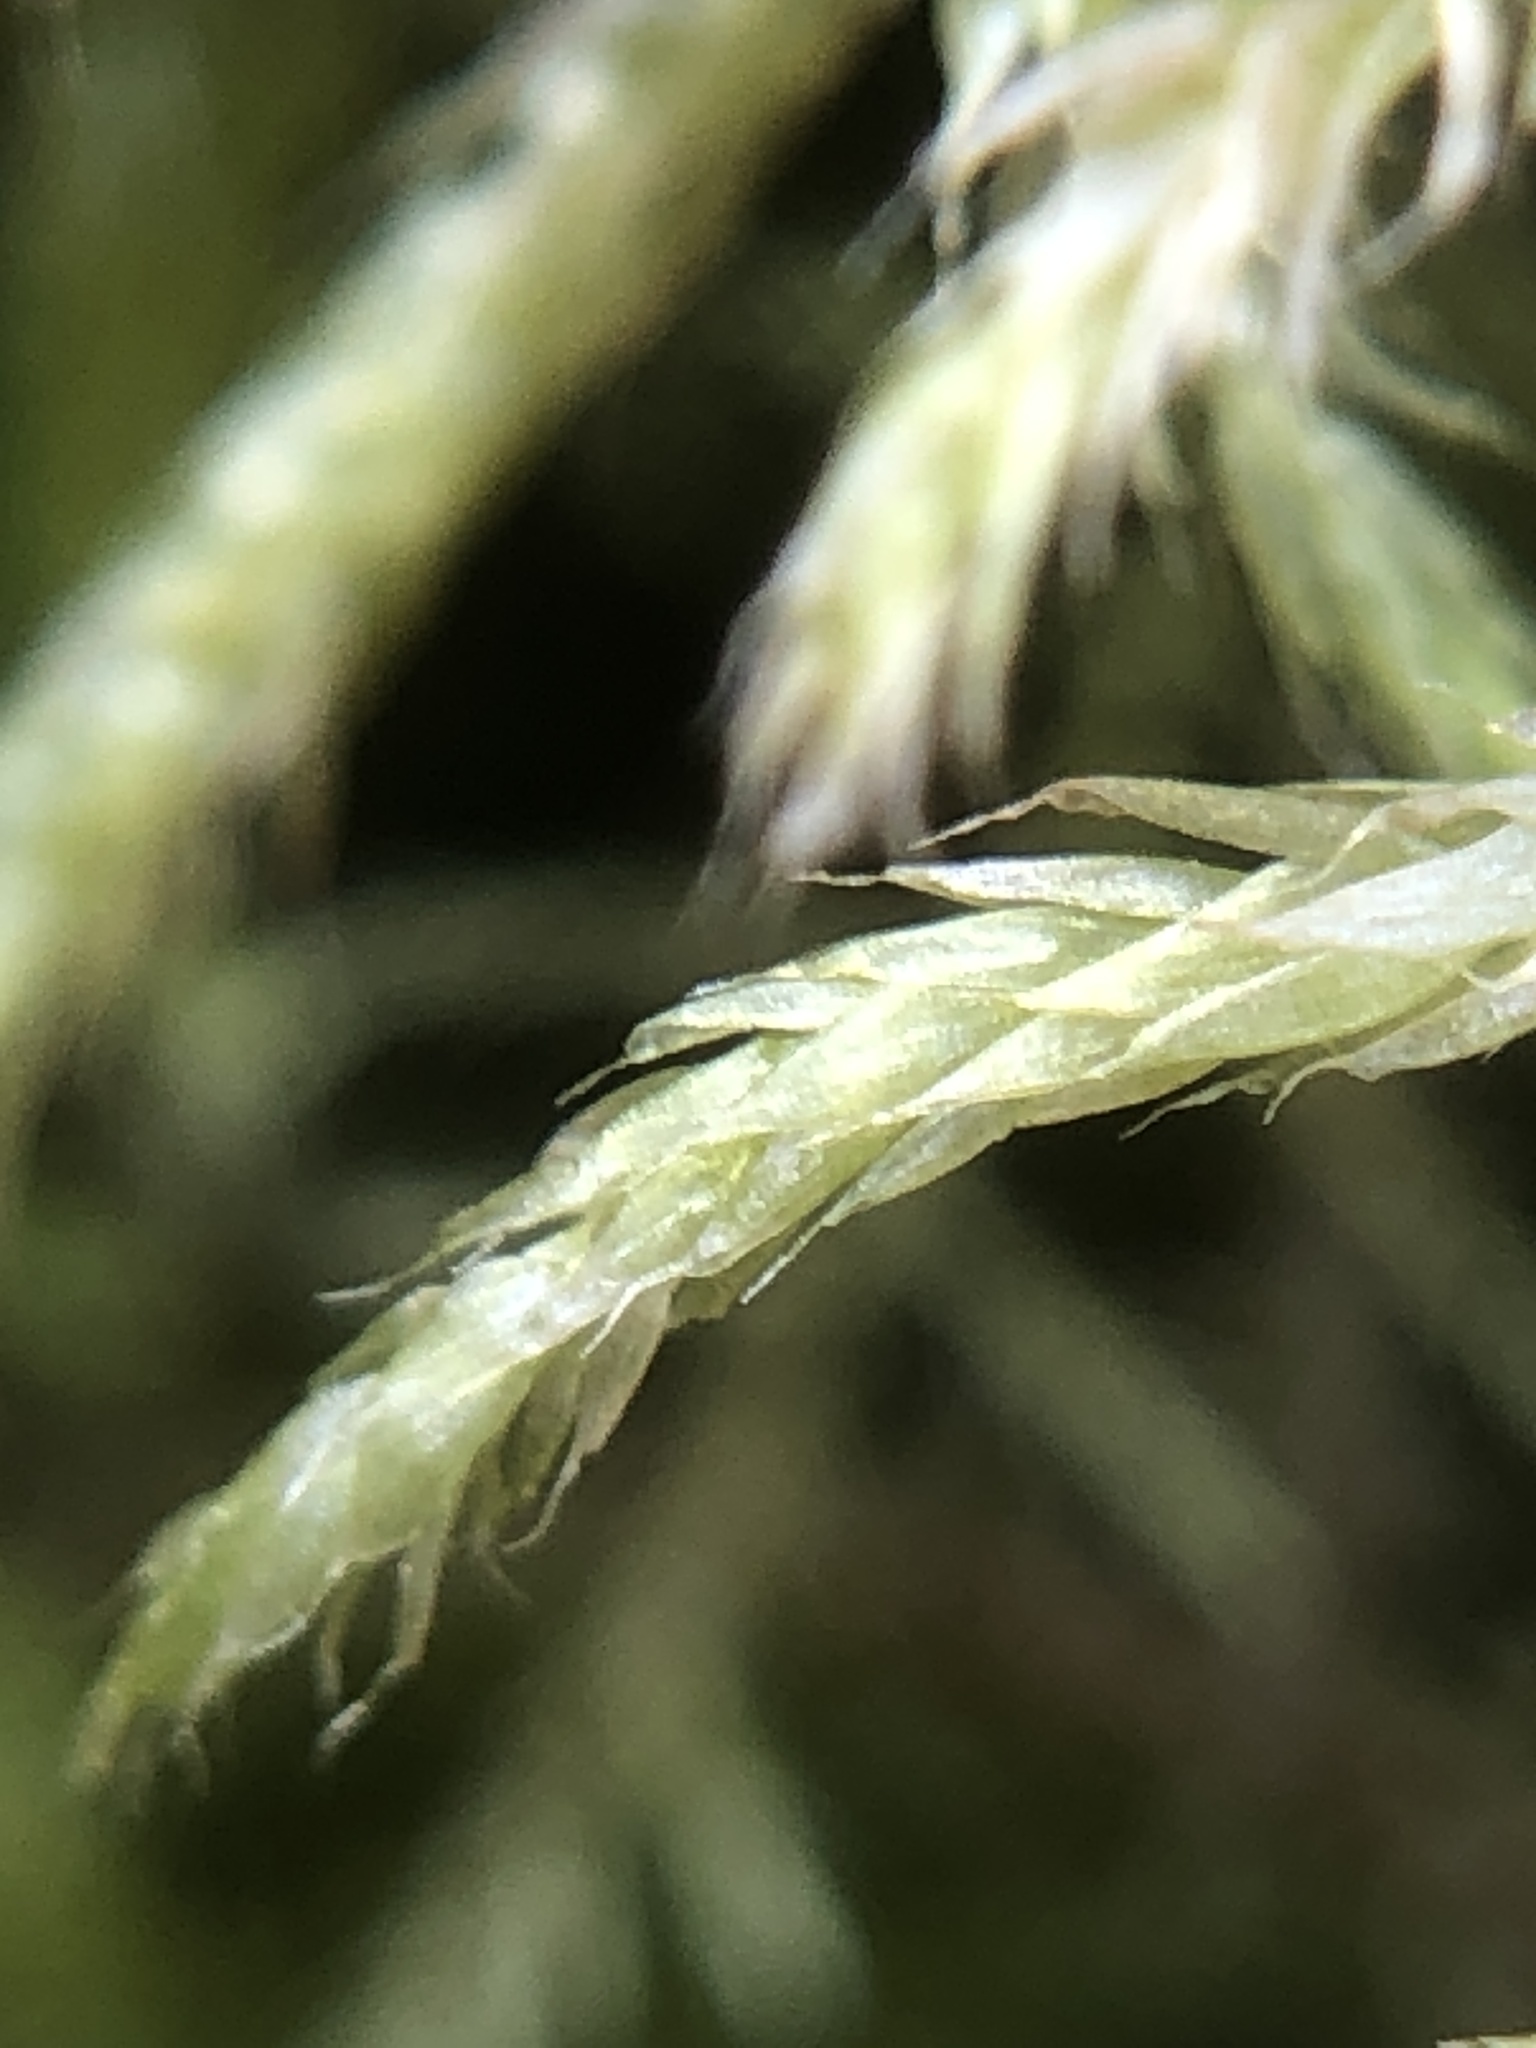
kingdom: Plantae
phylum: Bryophyta
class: Bryopsida
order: Hypnales
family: Brachytheciaceae
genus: Cirriphyllum
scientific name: Cirriphyllum piliferum
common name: Hair-pointed moss
